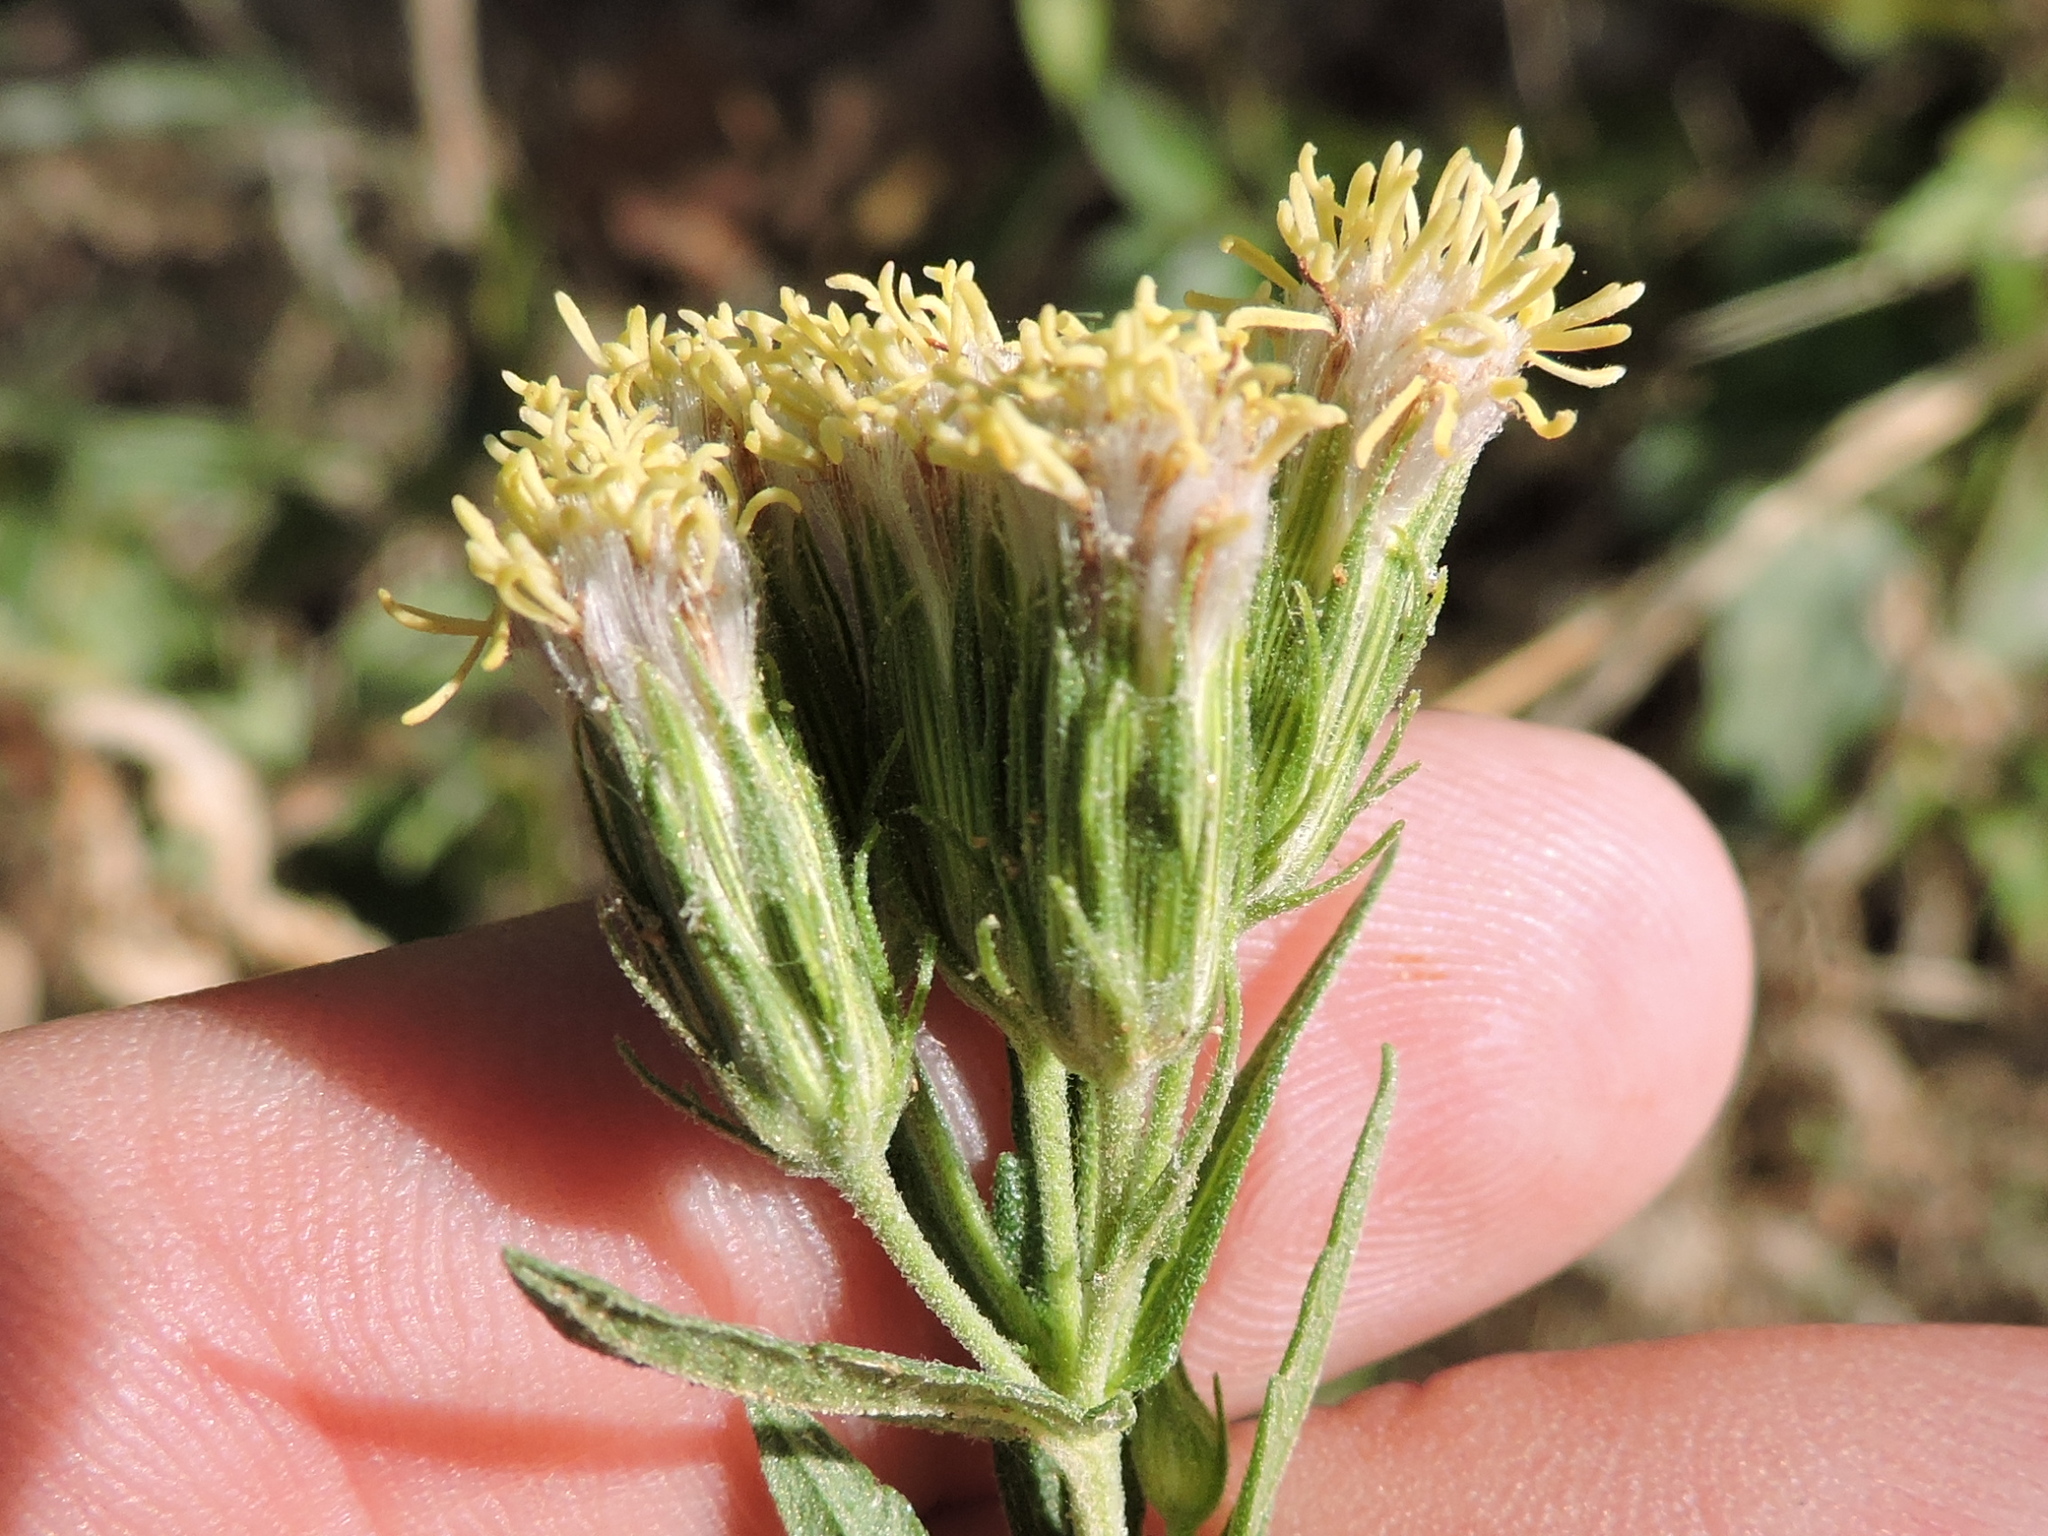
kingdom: Plantae
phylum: Tracheophyta
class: Magnoliopsida
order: Asterales
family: Asteraceae
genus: Brickellia
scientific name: Brickellia eupatorioides
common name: False boneset
